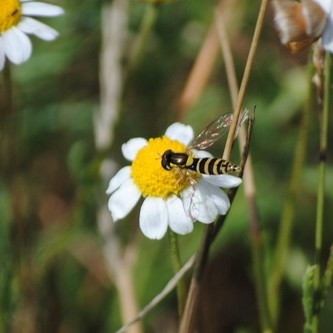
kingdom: Animalia
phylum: Arthropoda
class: Insecta
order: Diptera
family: Syrphidae
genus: Sphaerophoria
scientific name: Sphaerophoria
